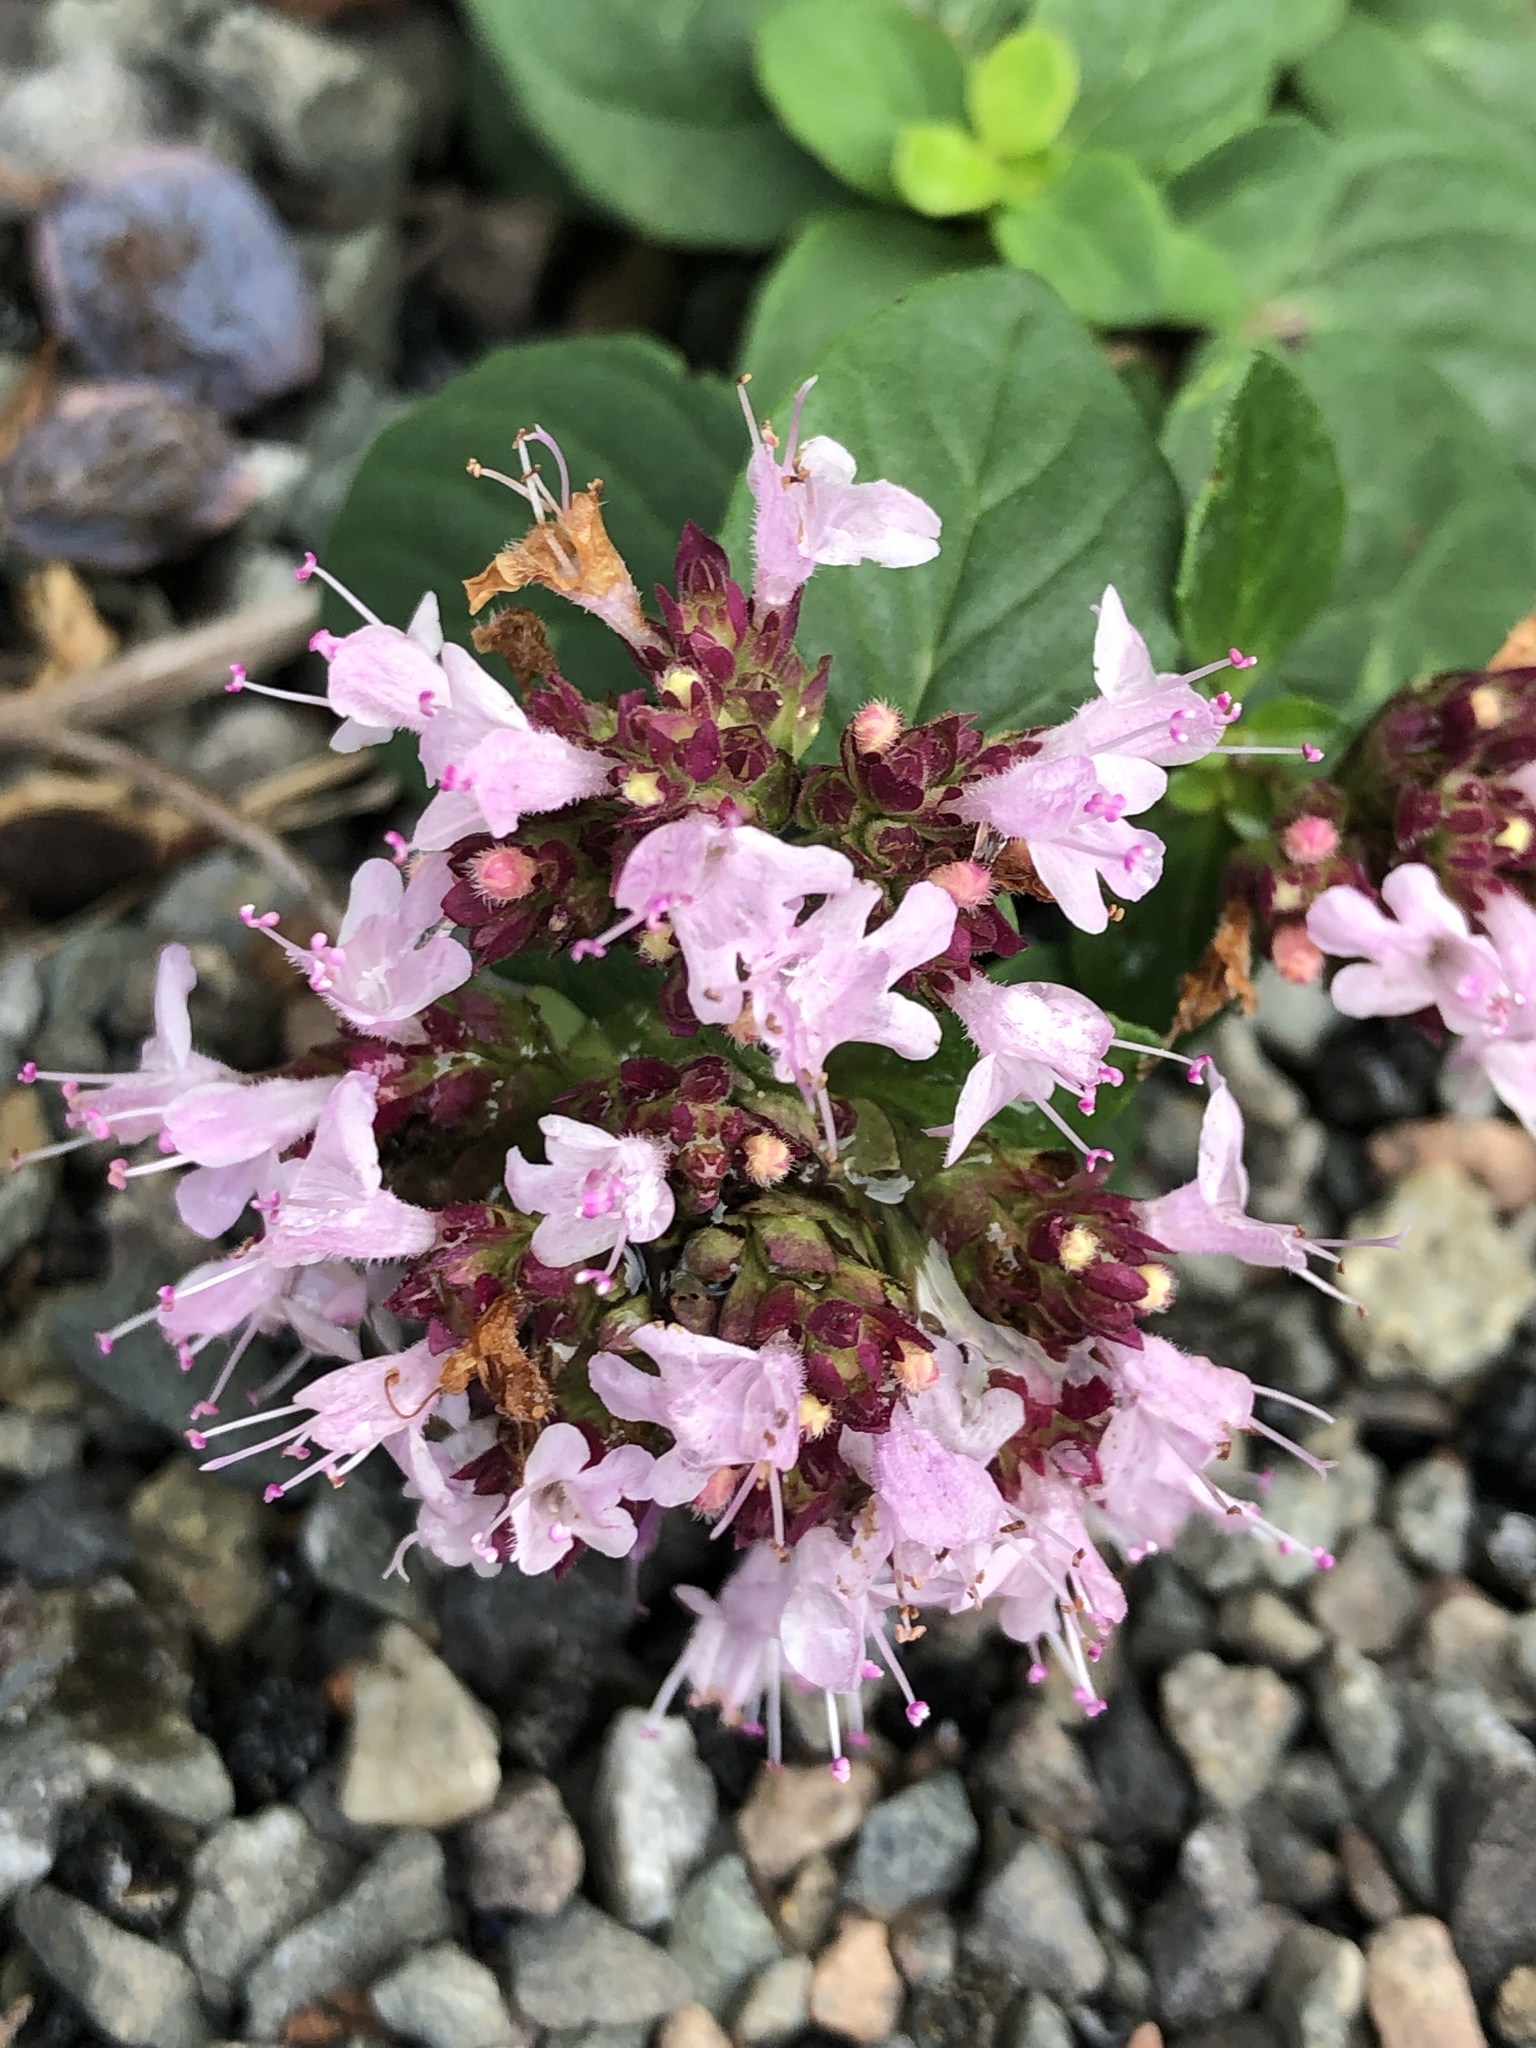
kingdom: Plantae
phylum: Tracheophyta
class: Magnoliopsida
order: Lamiales
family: Lamiaceae
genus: Origanum
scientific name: Origanum vulgare
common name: Wild marjoram
